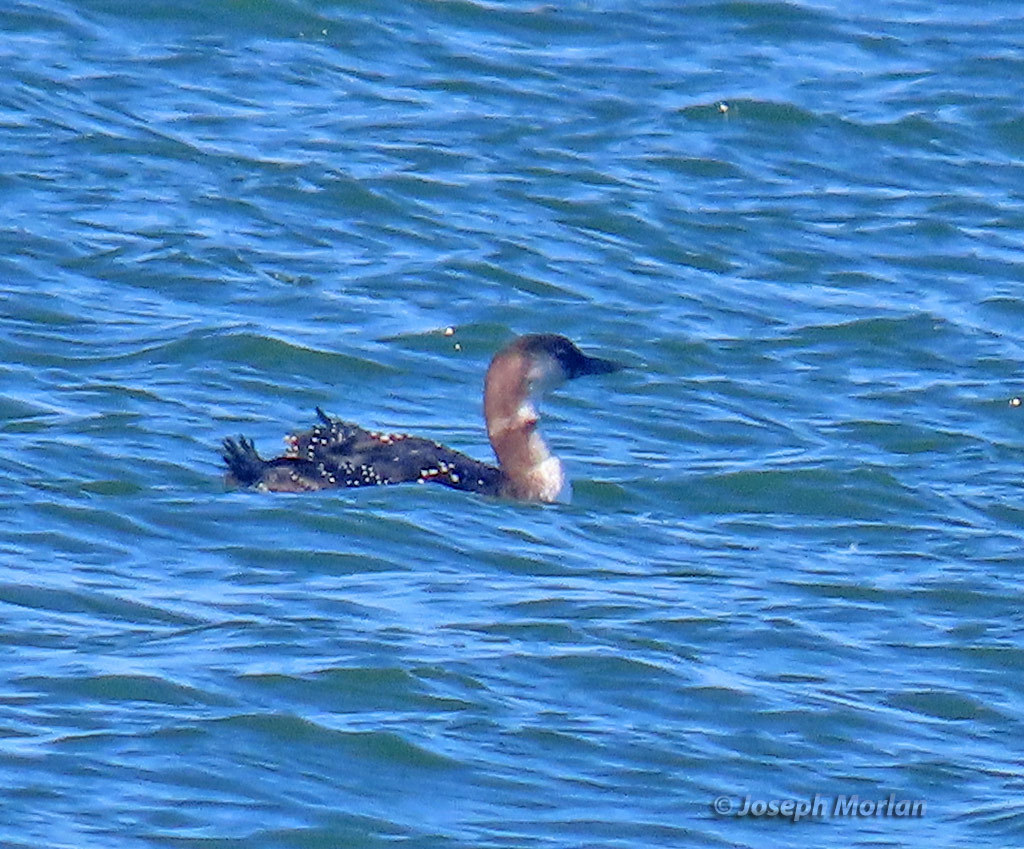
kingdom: Animalia
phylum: Chordata
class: Aves
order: Gaviiformes
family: Gaviidae
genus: Gavia
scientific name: Gavia immer
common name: Common loon
